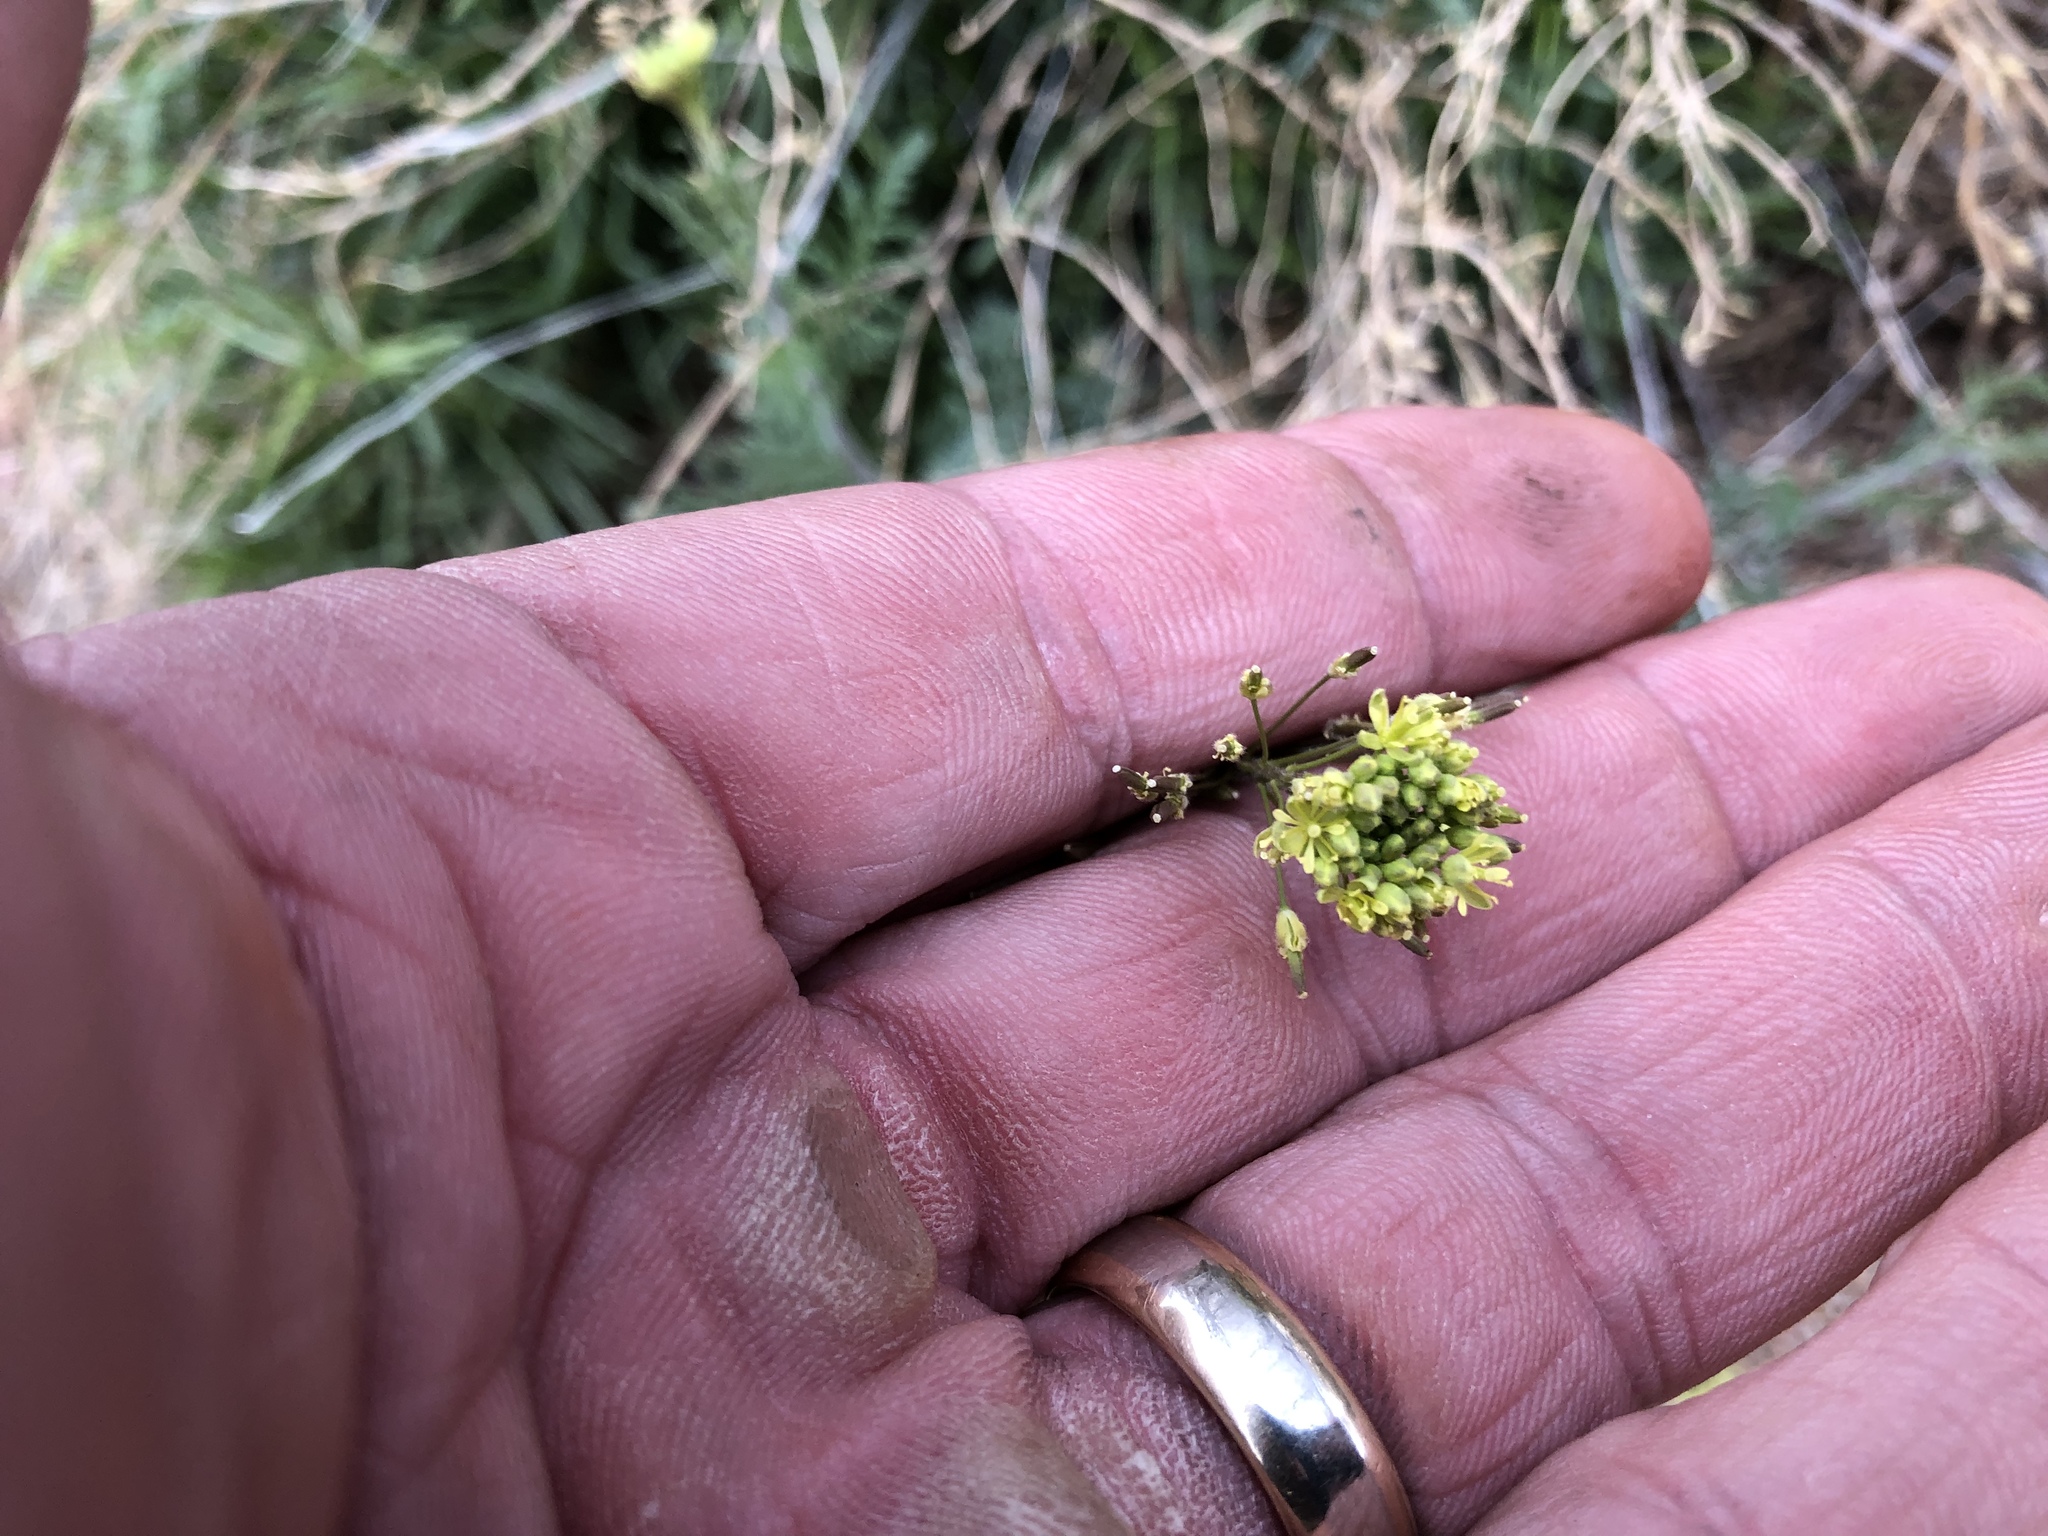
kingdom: Plantae
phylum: Tracheophyta
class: Magnoliopsida
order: Brassicales
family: Brassicaceae
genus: Descurainia
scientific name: Descurainia pinnata
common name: Western tansy mustard
